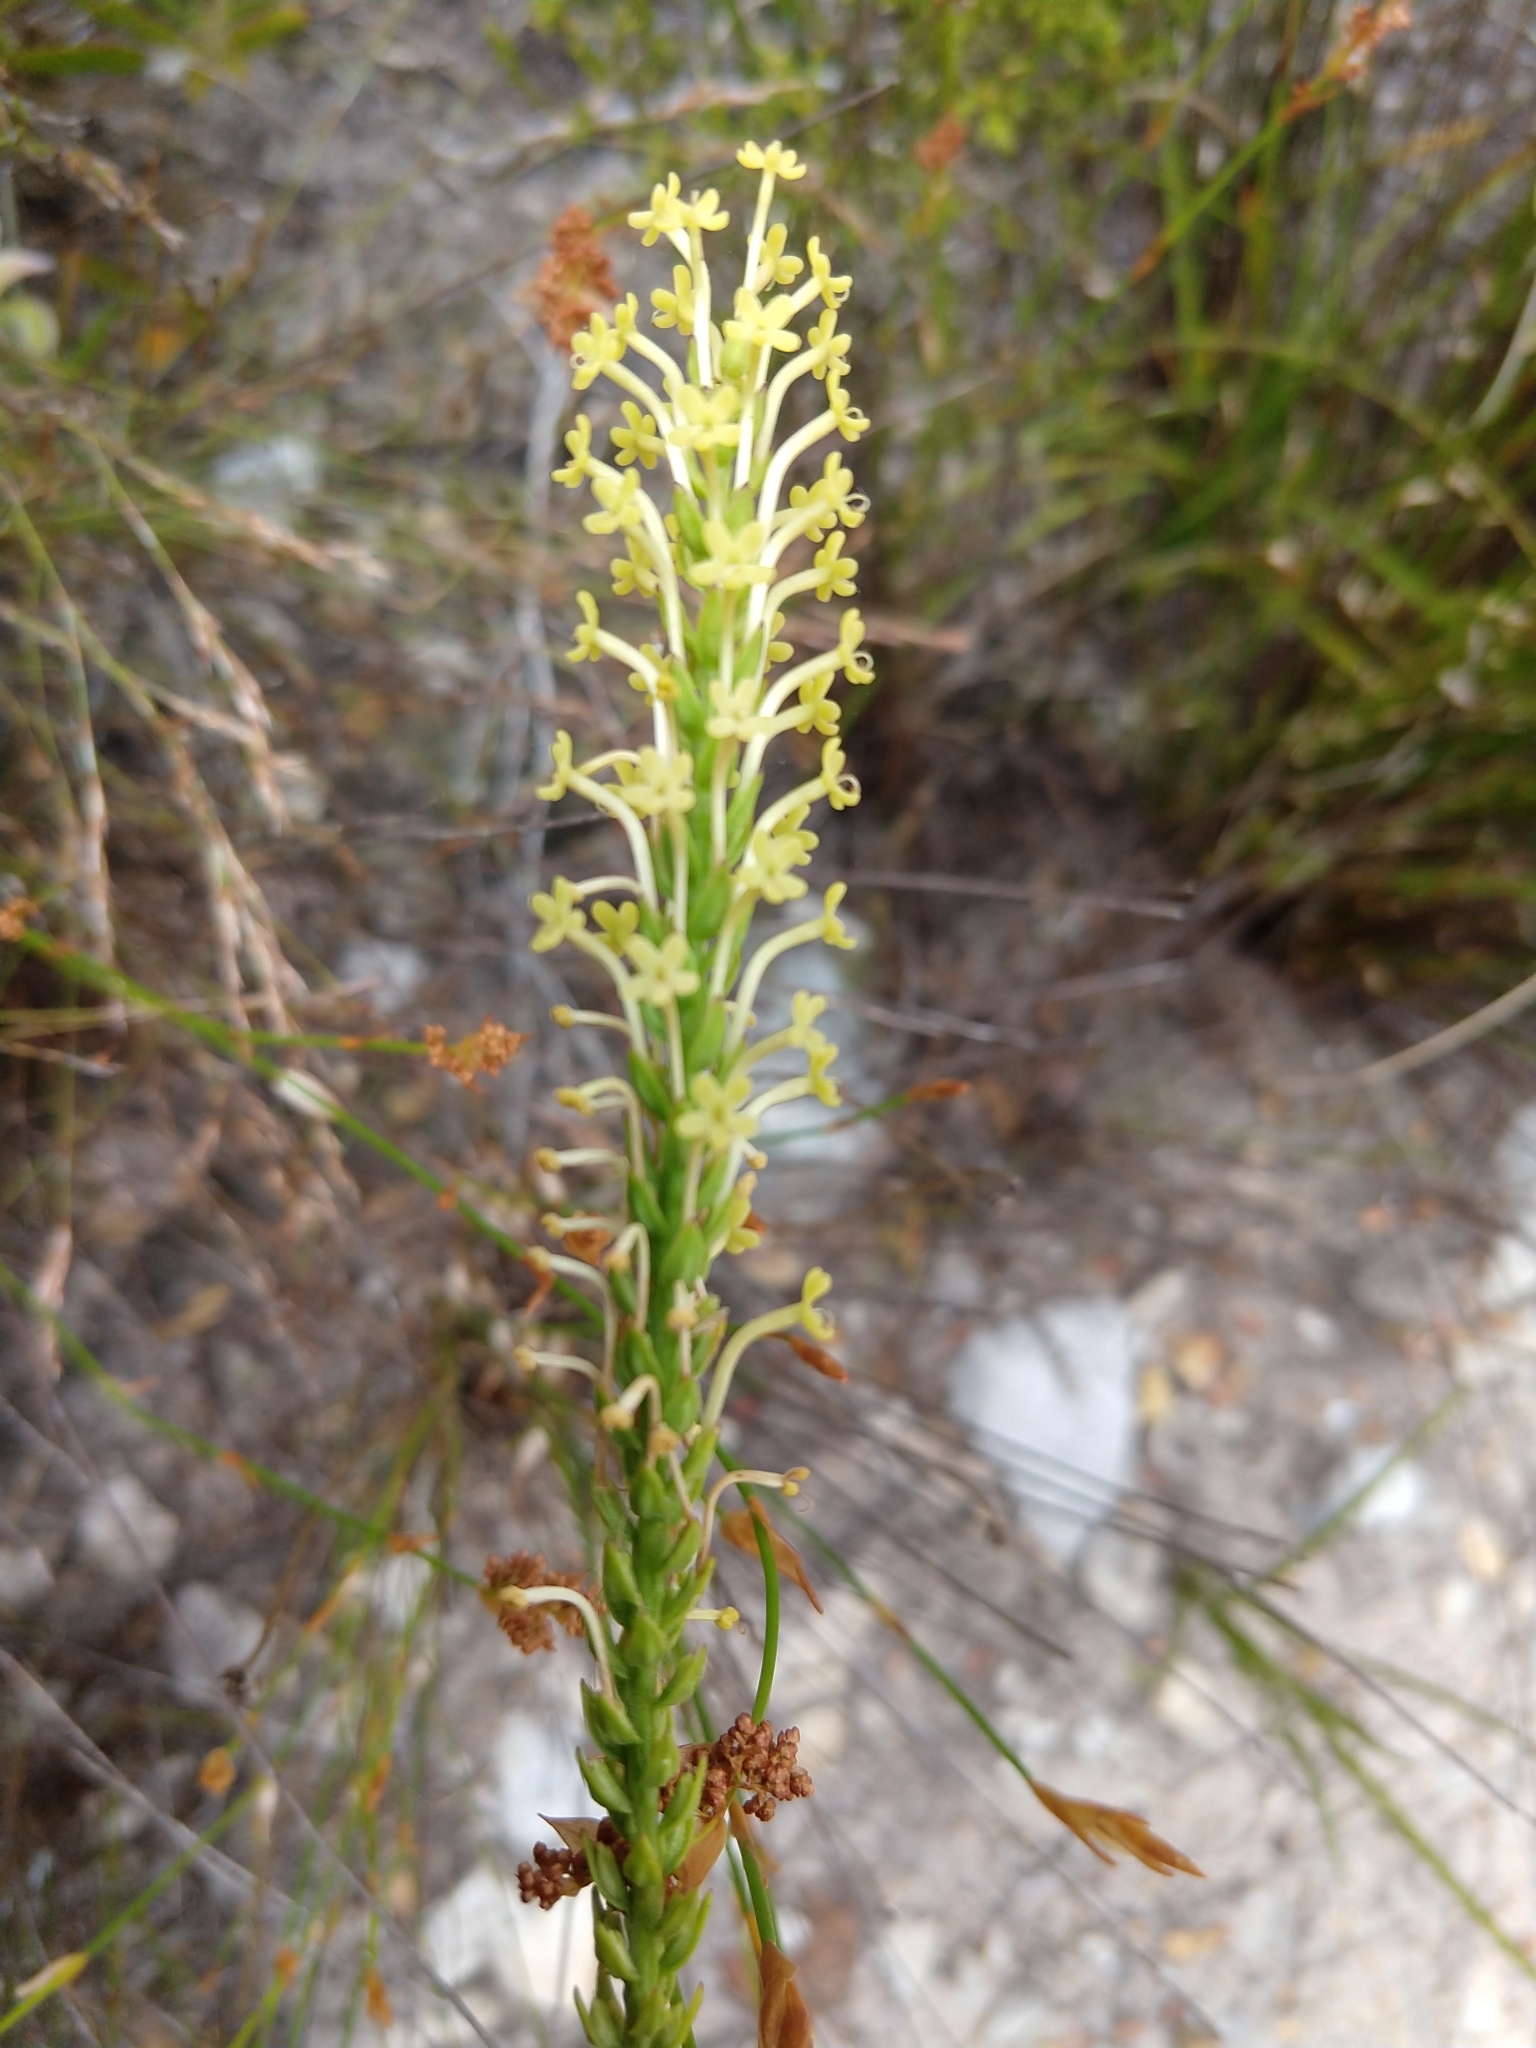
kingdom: Plantae
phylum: Tracheophyta
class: Magnoliopsida
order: Lamiales
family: Scrophulariaceae
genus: Microdon
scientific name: Microdon dubius
